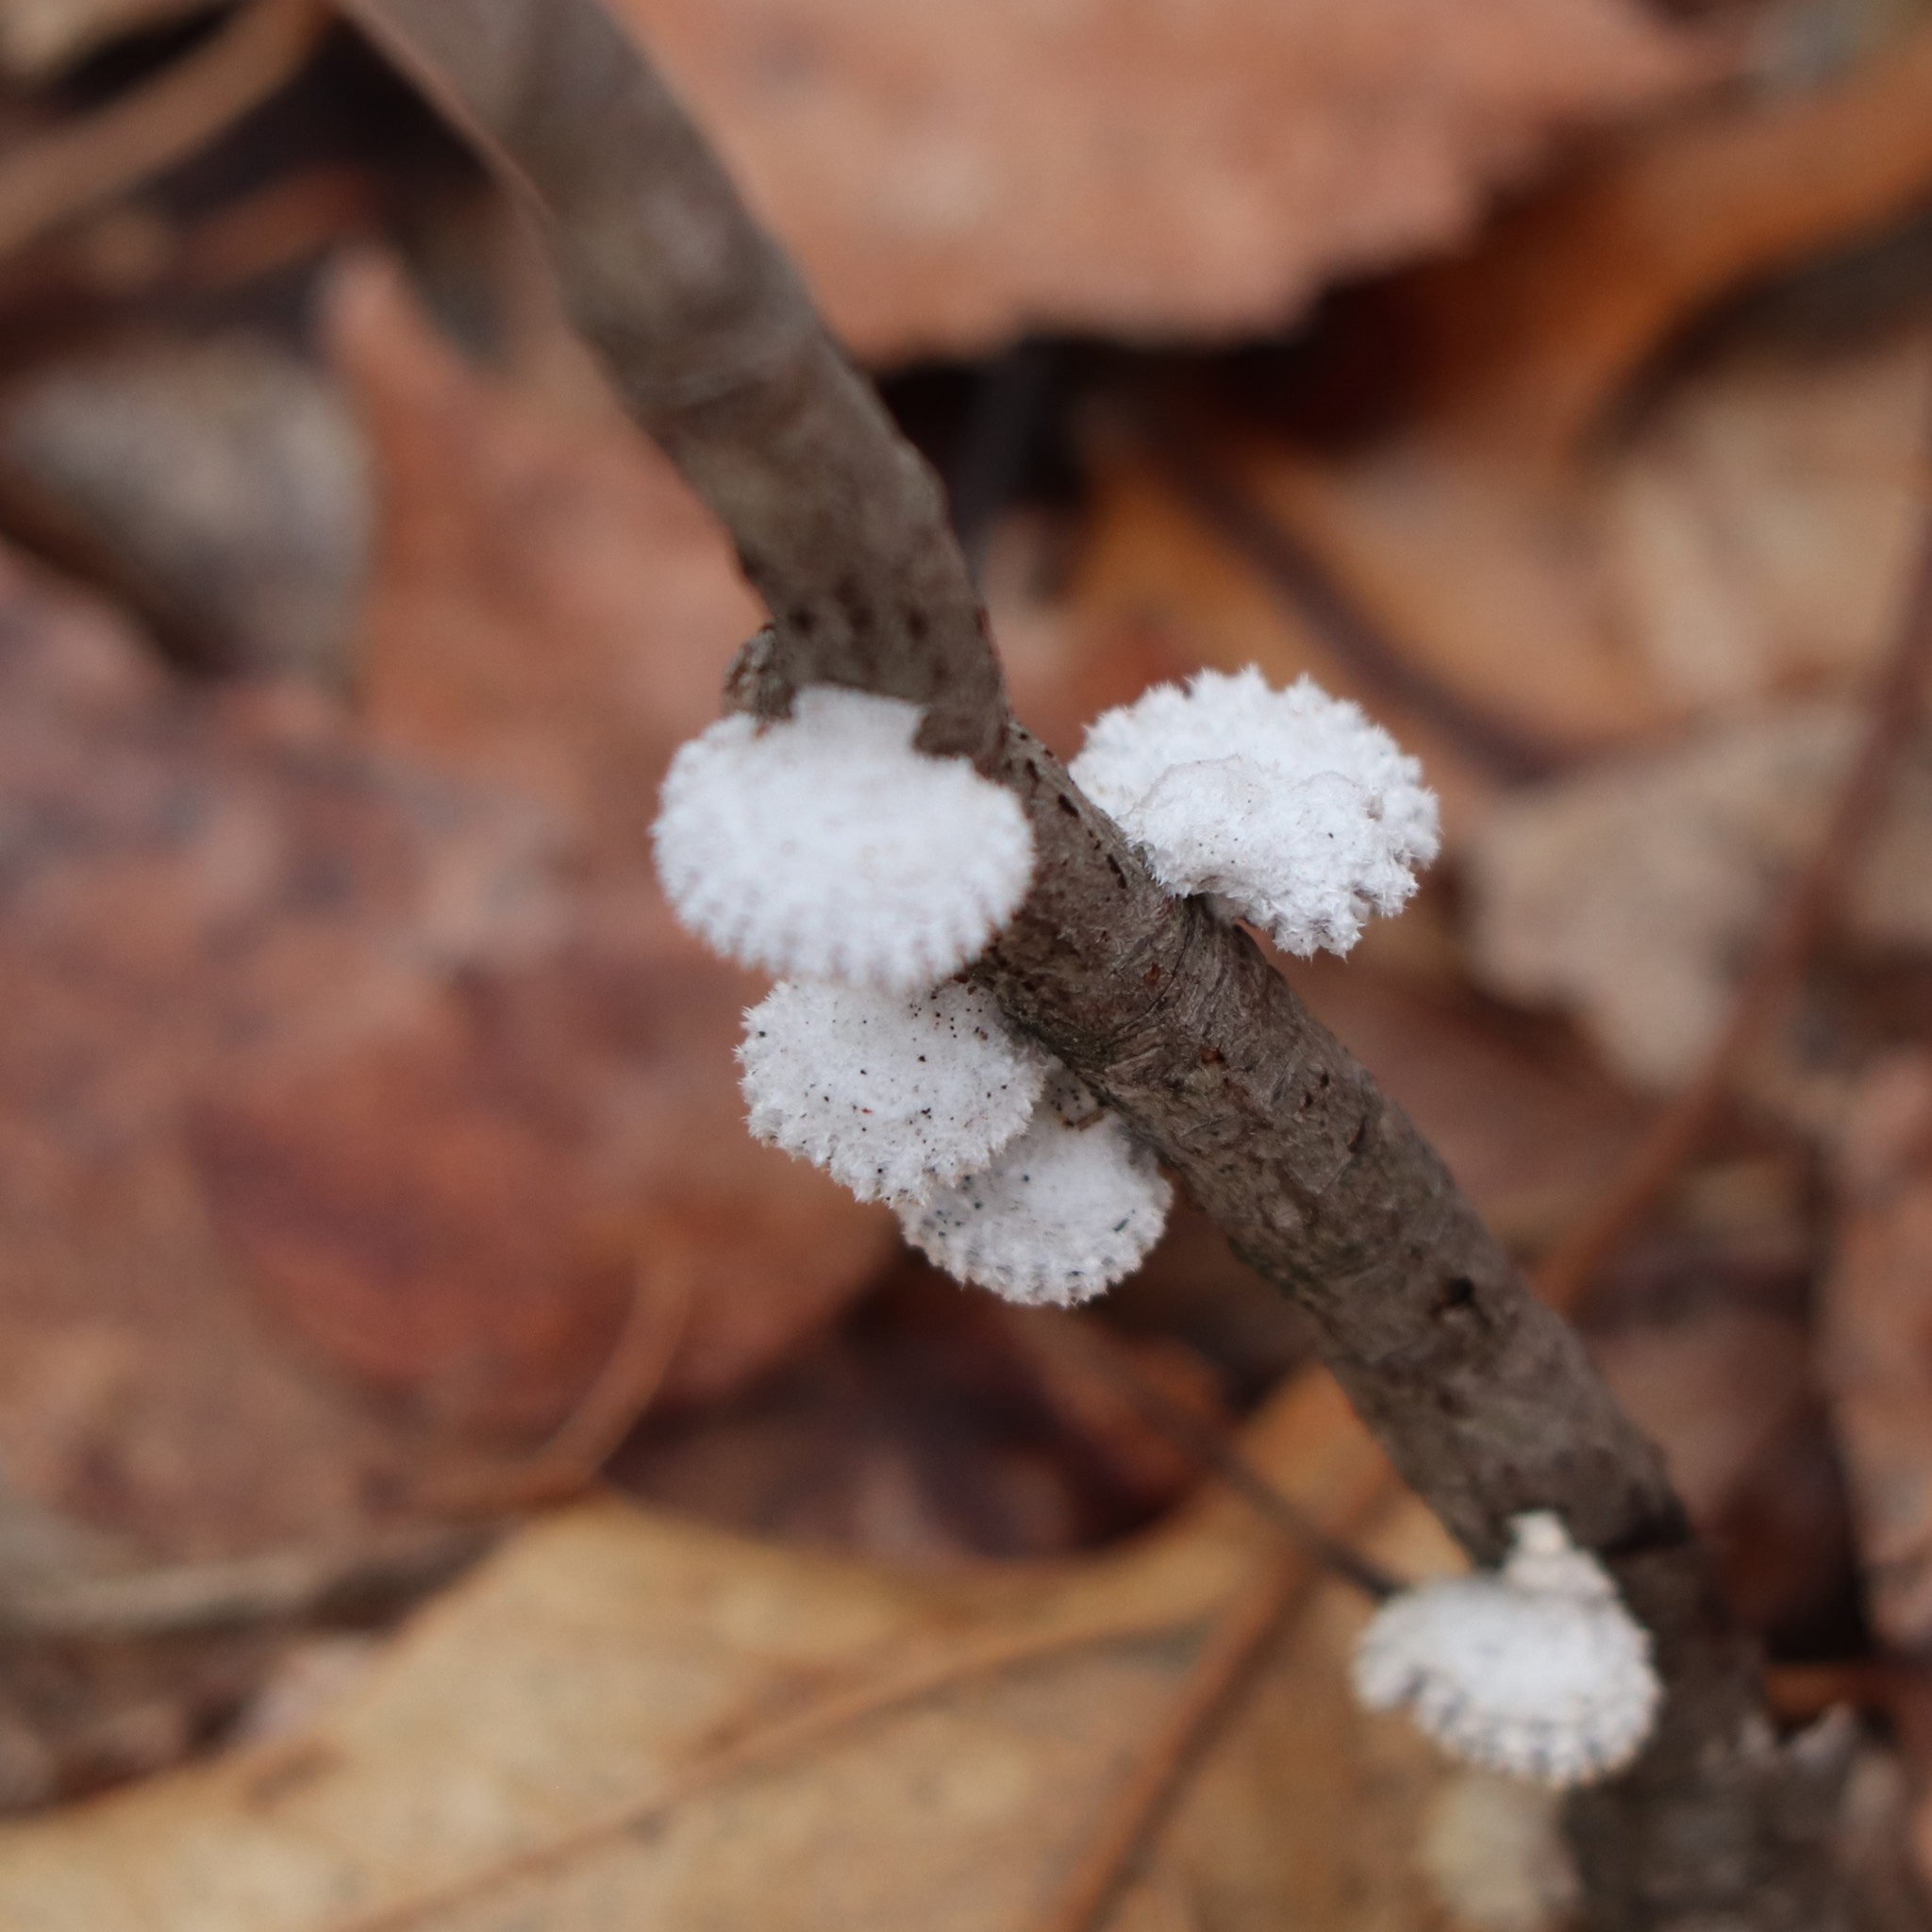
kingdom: Fungi
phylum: Basidiomycota
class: Agaricomycetes
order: Agaricales
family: Schizophyllaceae
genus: Schizophyllum
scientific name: Schizophyllum commune
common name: Common porecrust
